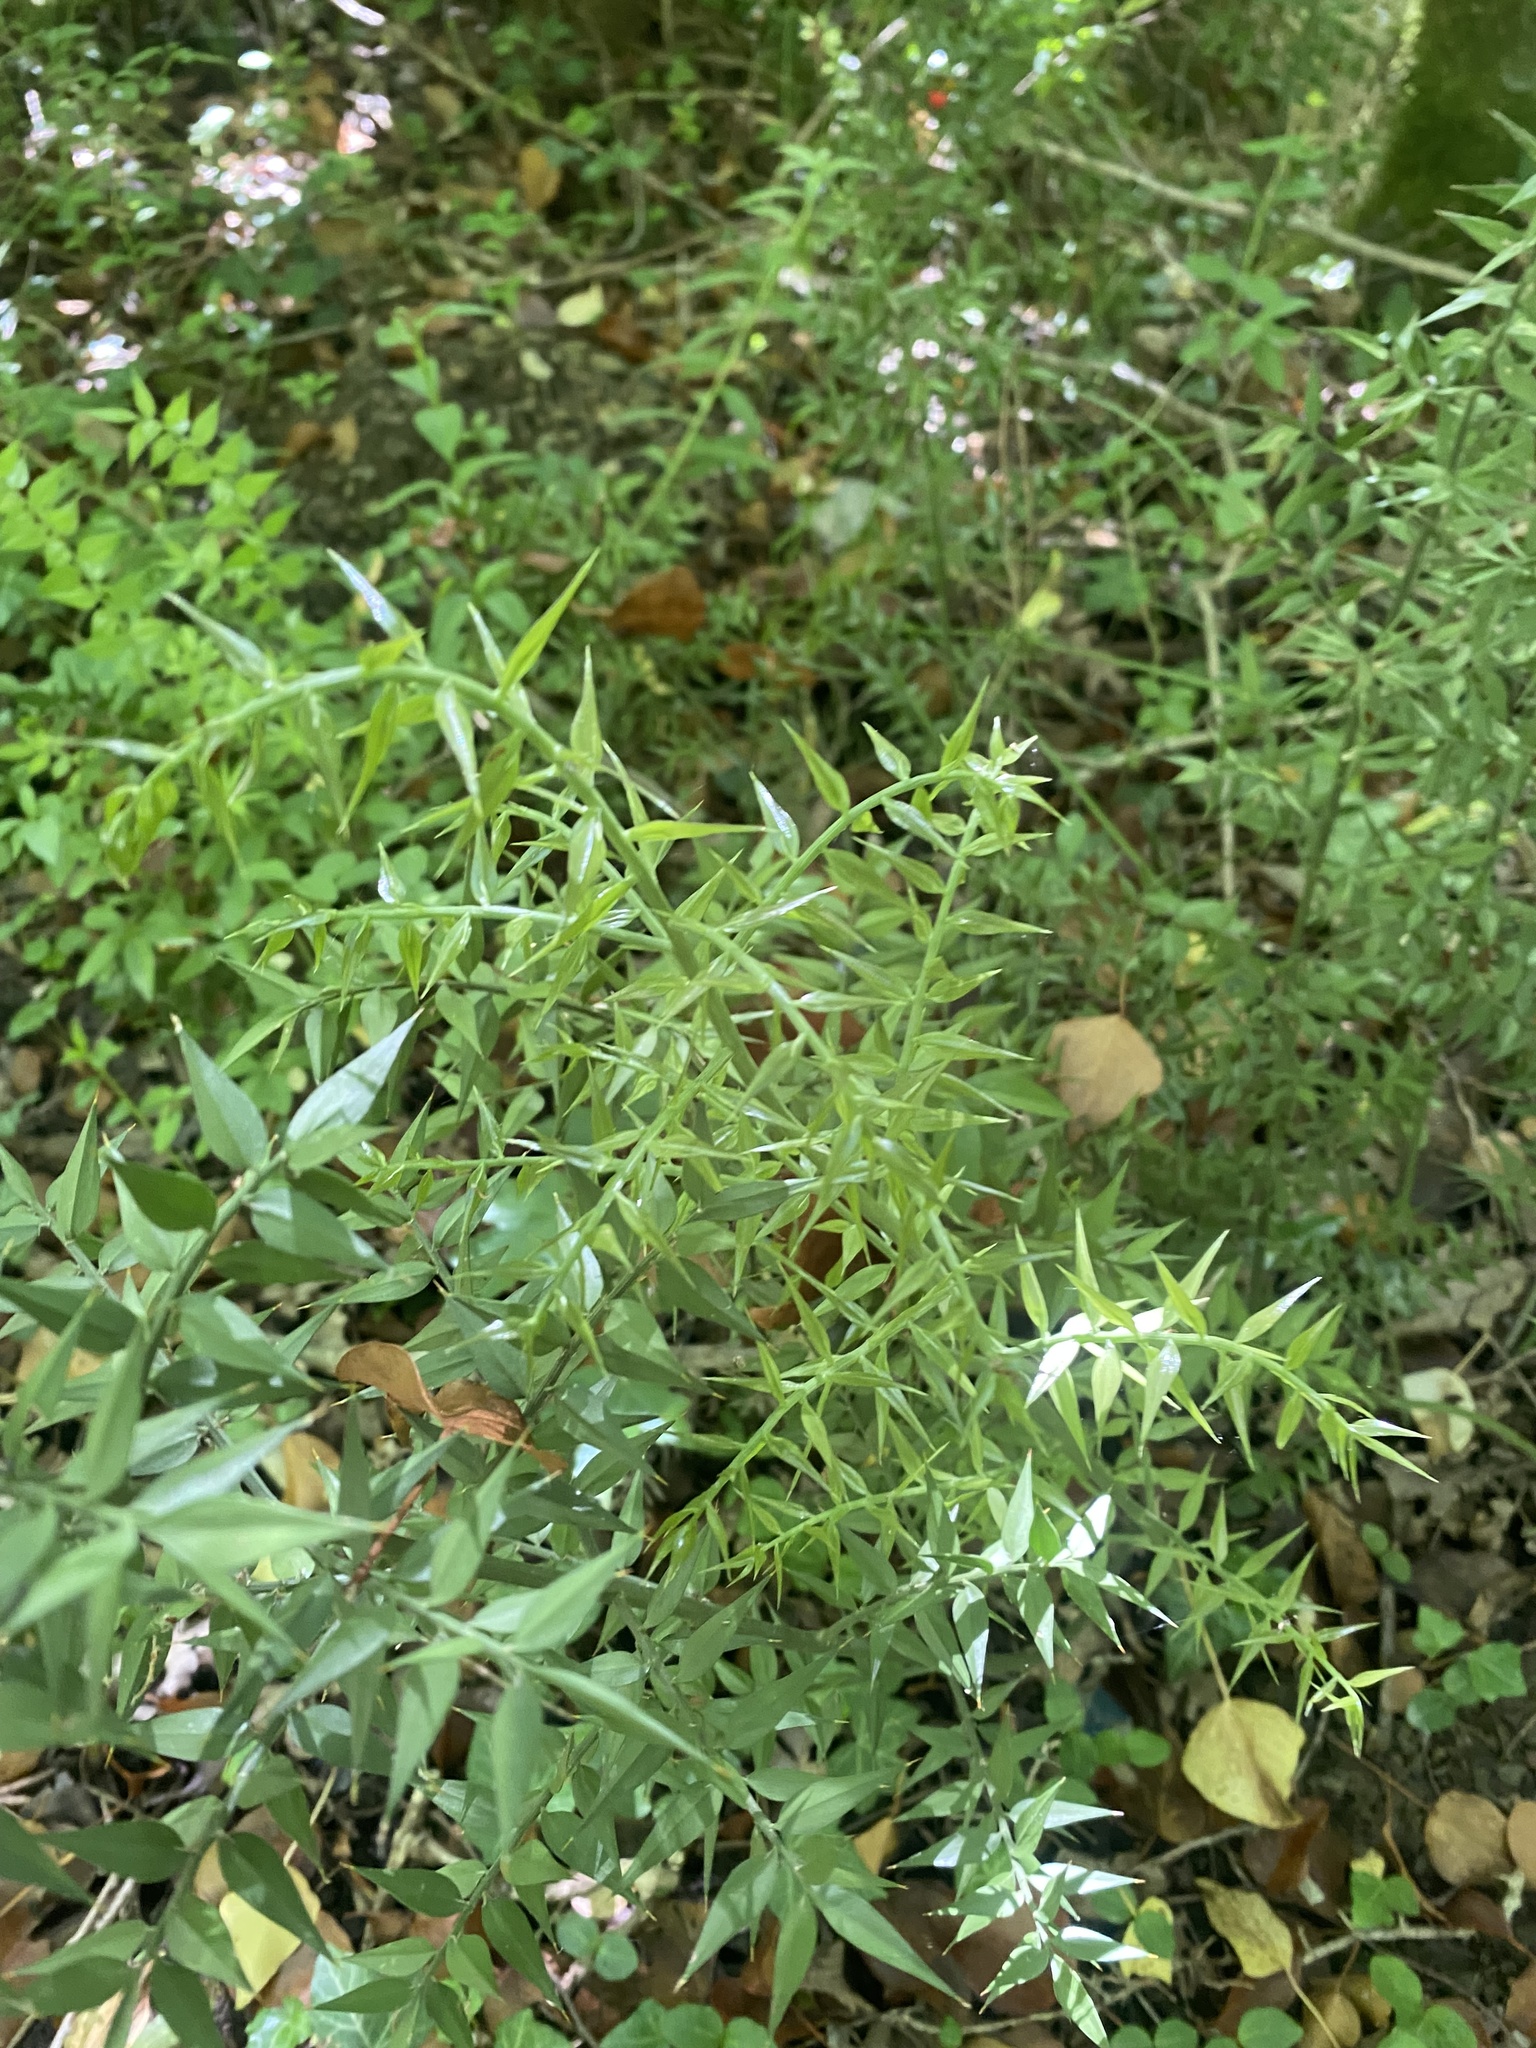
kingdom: Plantae
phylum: Tracheophyta
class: Liliopsida
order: Asparagales
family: Asparagaceae
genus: Ruscus
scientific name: Ruscus aculeatus
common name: Butcher's-broom
